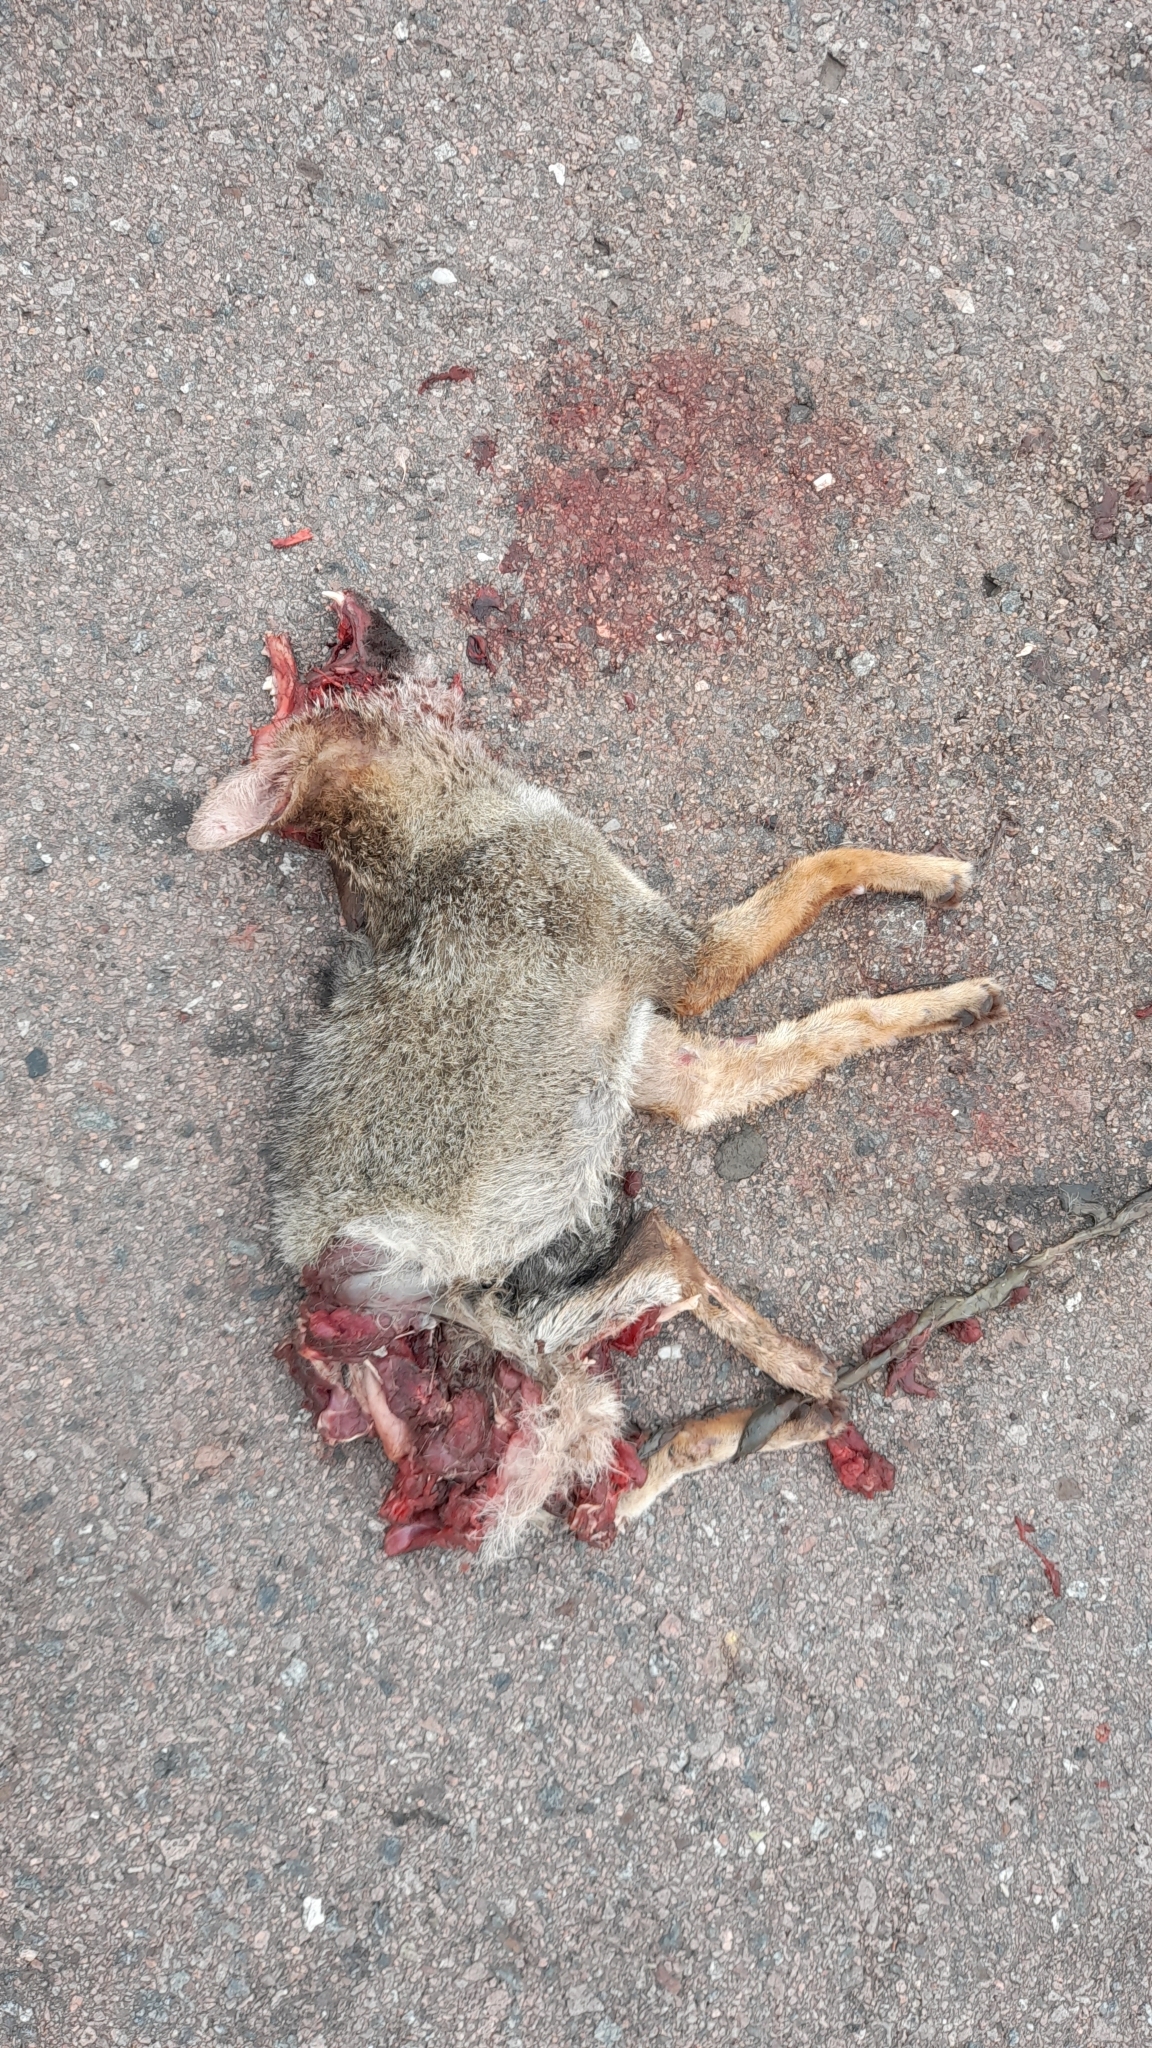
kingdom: Animalia
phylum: Chordata
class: Mammalia
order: Carnivora
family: Canidae
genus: Lycalopex
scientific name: Lycalopex gymnocercus
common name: Pampas fox
